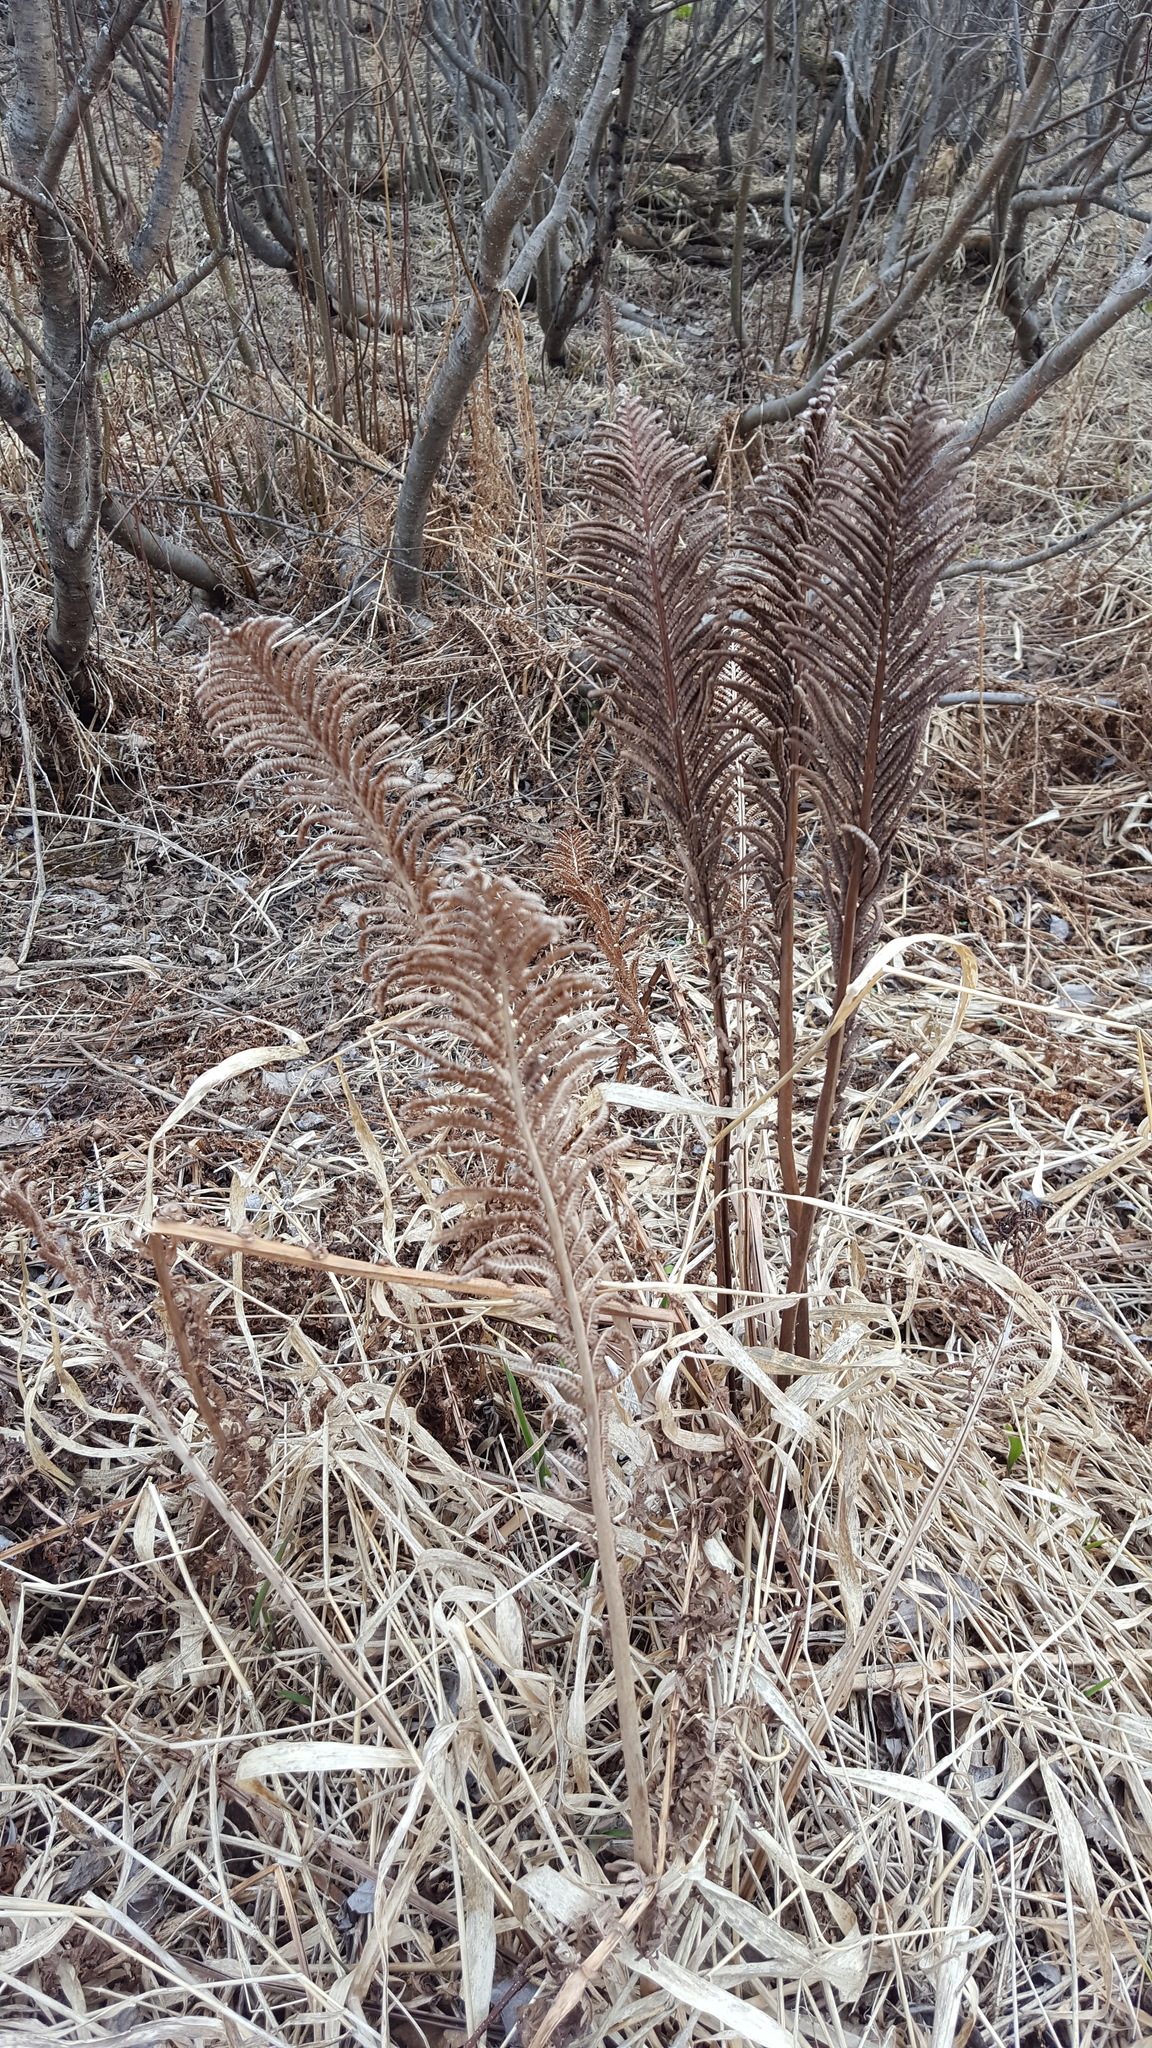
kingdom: Plantae
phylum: Tracheophyta
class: Polypodiopsida
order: Polypodiales
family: Onocleaceae
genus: Matteuccia
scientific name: Matteuccia struthiopteris
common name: Ostrich fern
